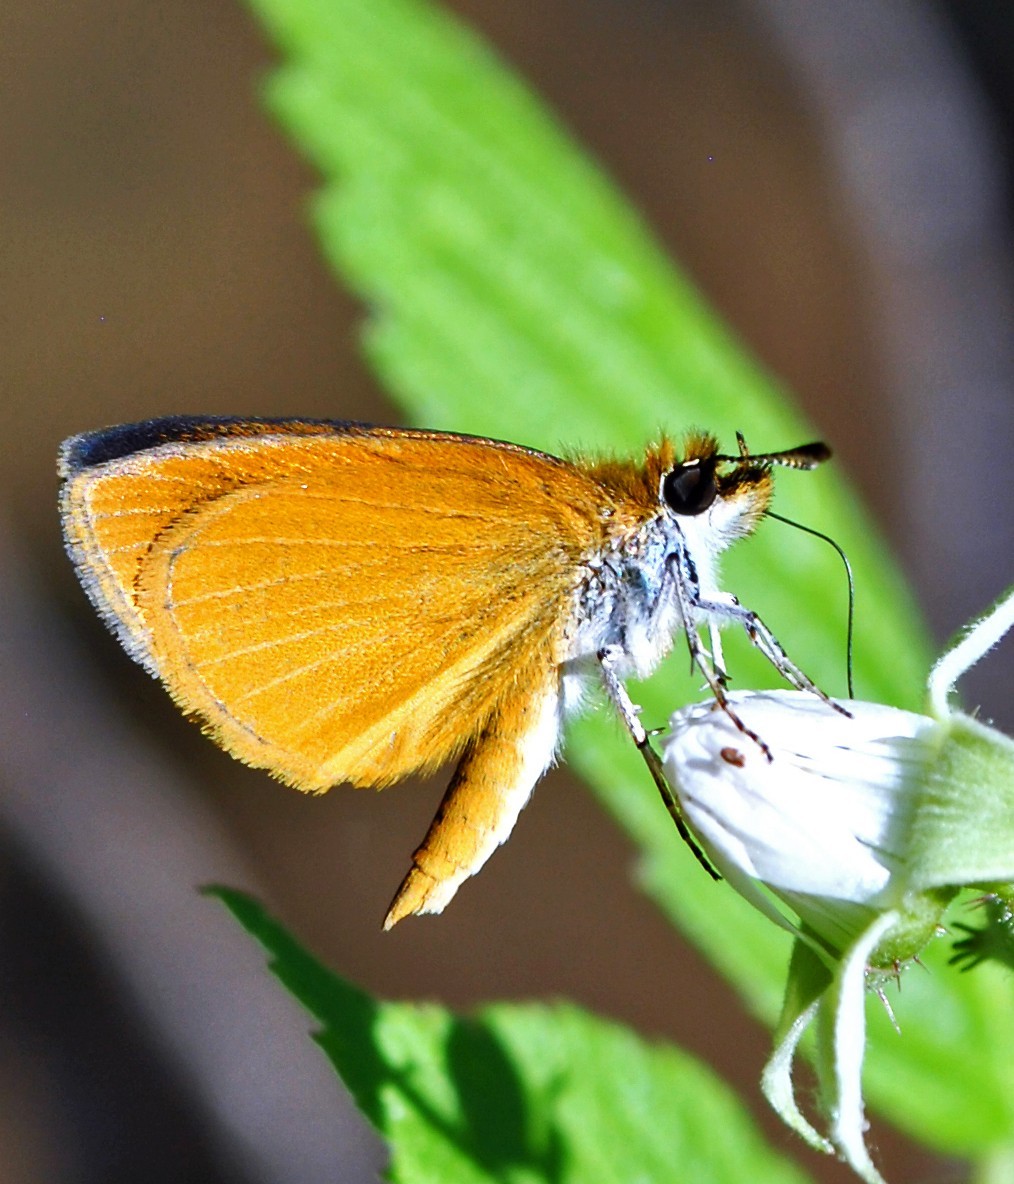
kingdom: Animalia
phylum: Arthropoda
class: Insecta
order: Lepidoptera
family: Hesperiidae
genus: Ancyloxypha
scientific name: Ancyloxypha numitor
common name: Least skipper
